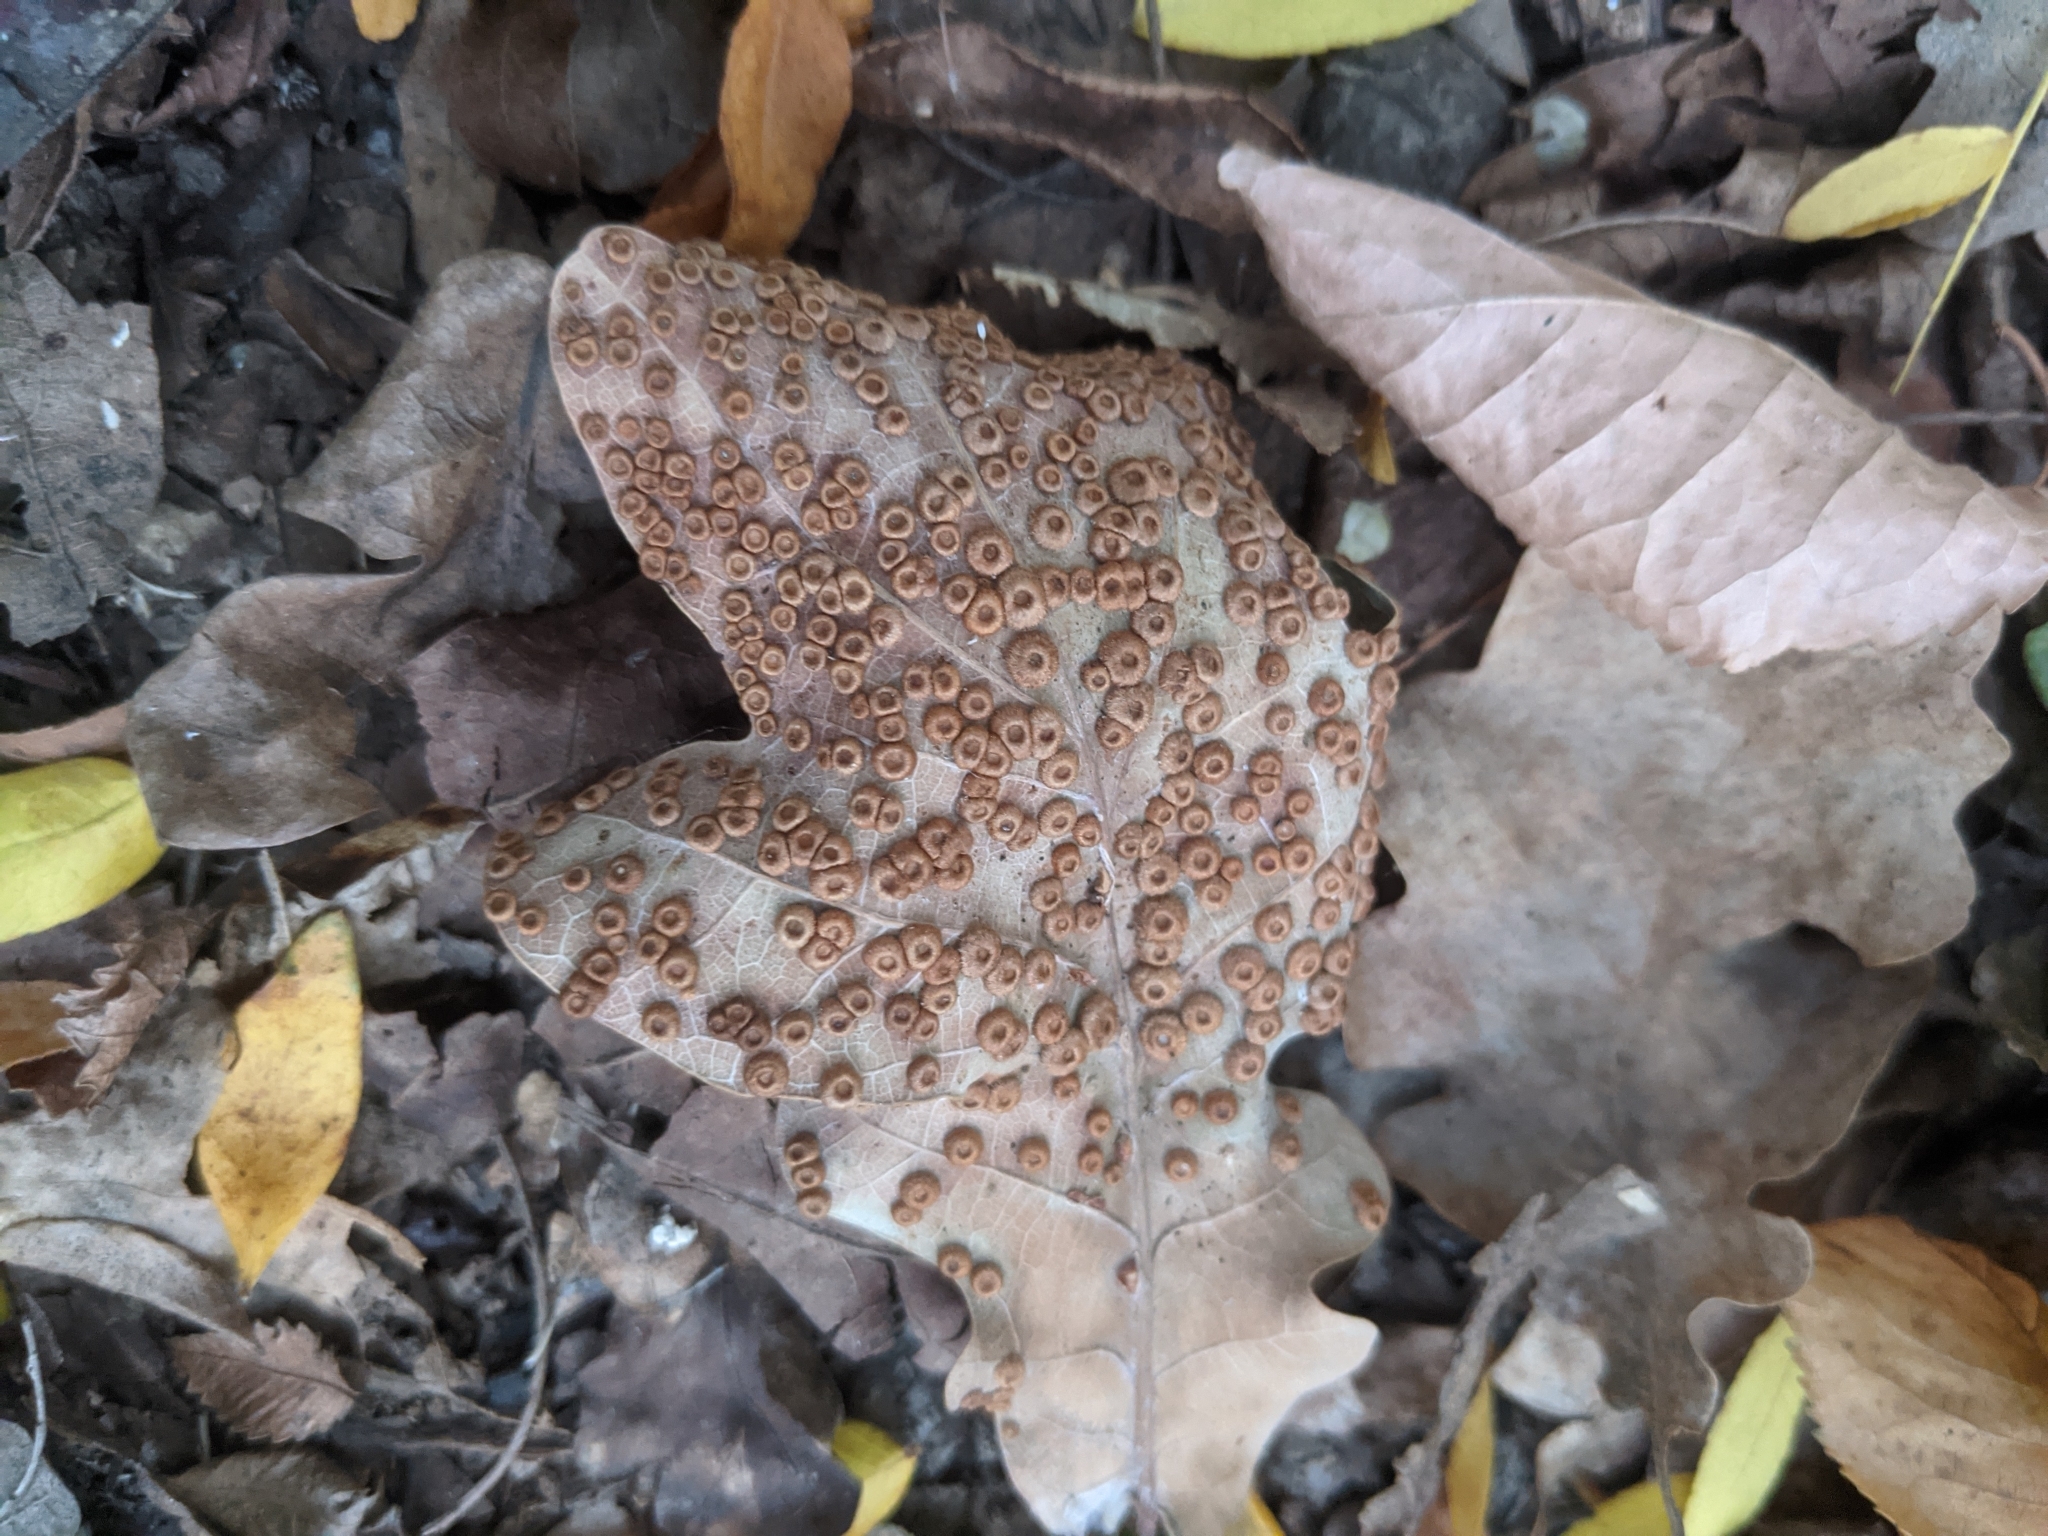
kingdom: Animalia
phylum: Arthropoda
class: Insecta
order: Hymenoptera
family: Cynipidae
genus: Neuroterus
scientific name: Neuroterus numismalis
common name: Silk-button spangle gall
